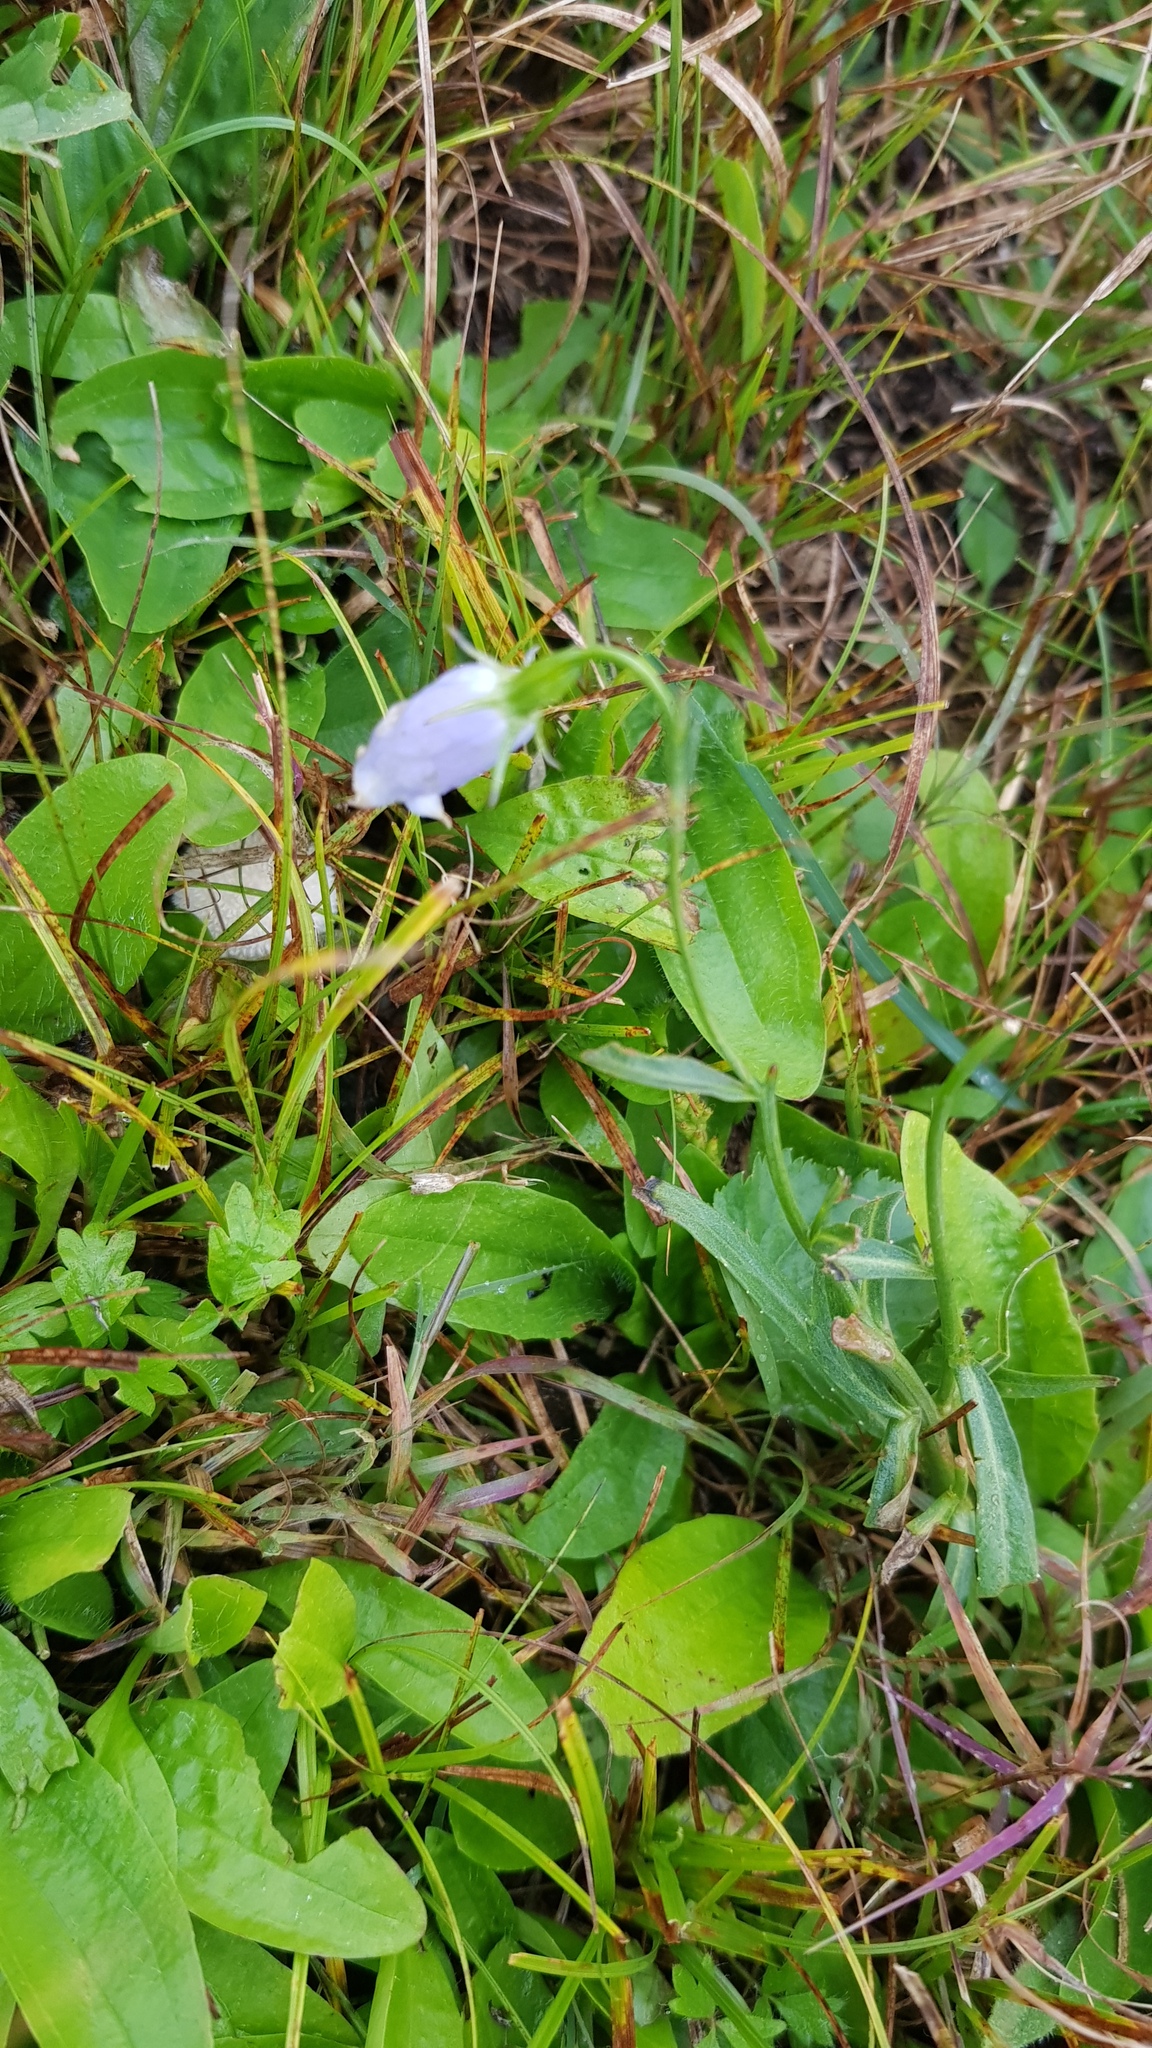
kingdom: Plantae
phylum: Tracheophyta
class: Magnoliopsida
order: Asterales
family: Campanulaceae
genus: Adenophora
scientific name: Adenophora stenanthina
